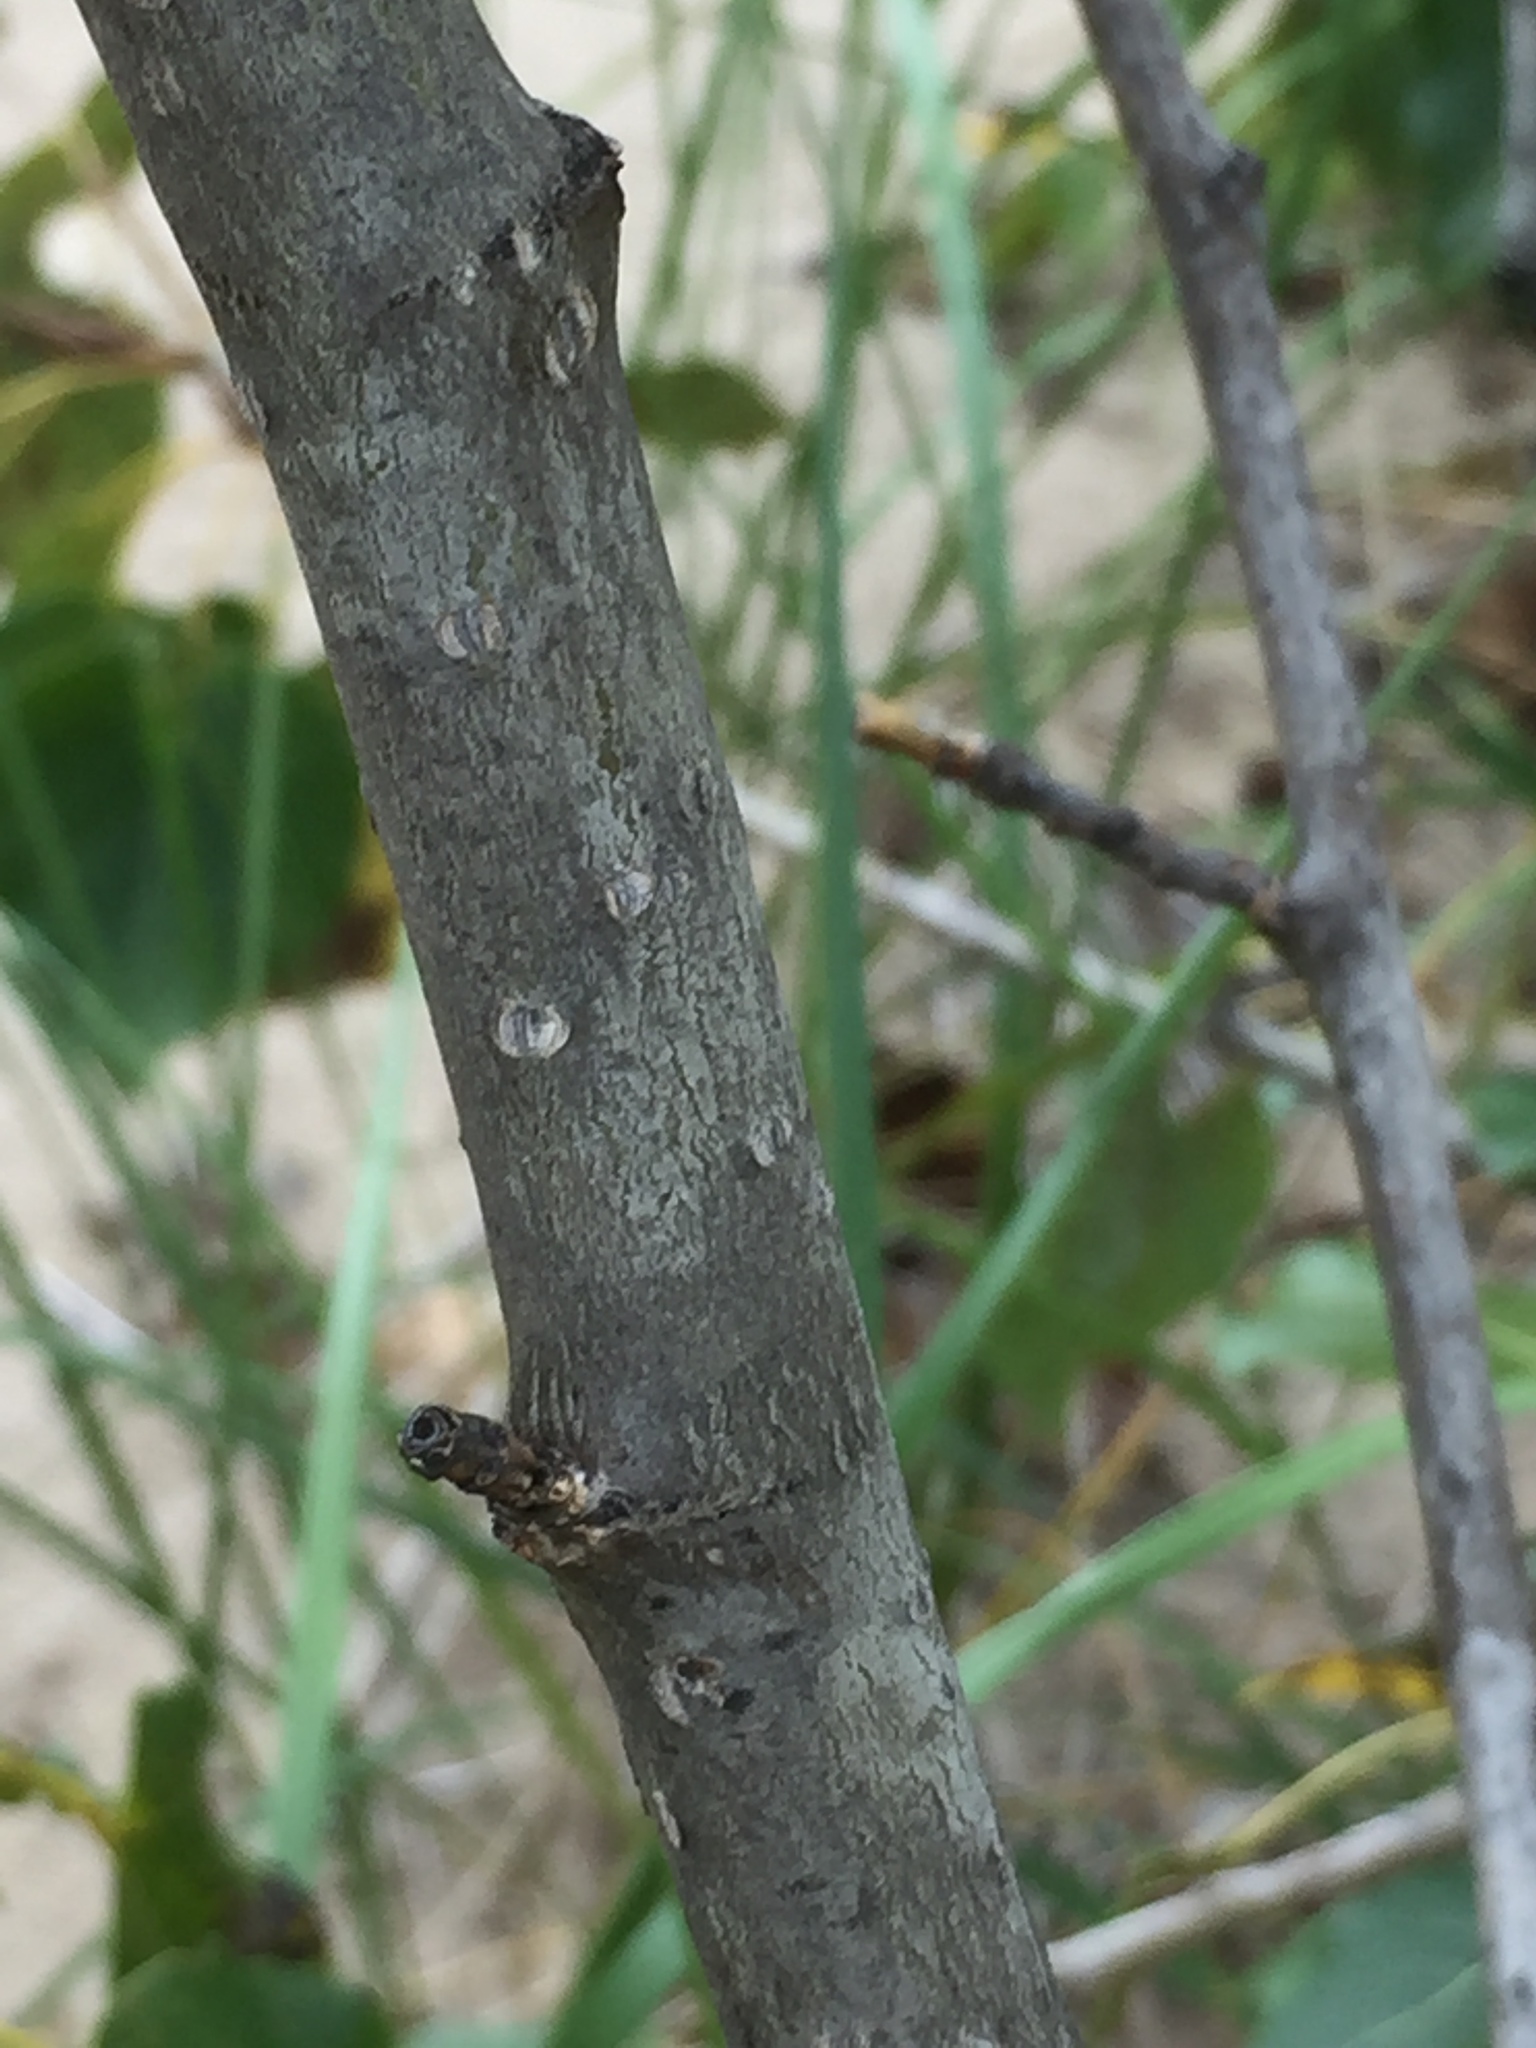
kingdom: Plantae
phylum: Tracheophyta
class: Magnoliopsida
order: Malpighiales
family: Salicaceae
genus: Populus
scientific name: Populus balsamifera
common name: Balsam poplar
